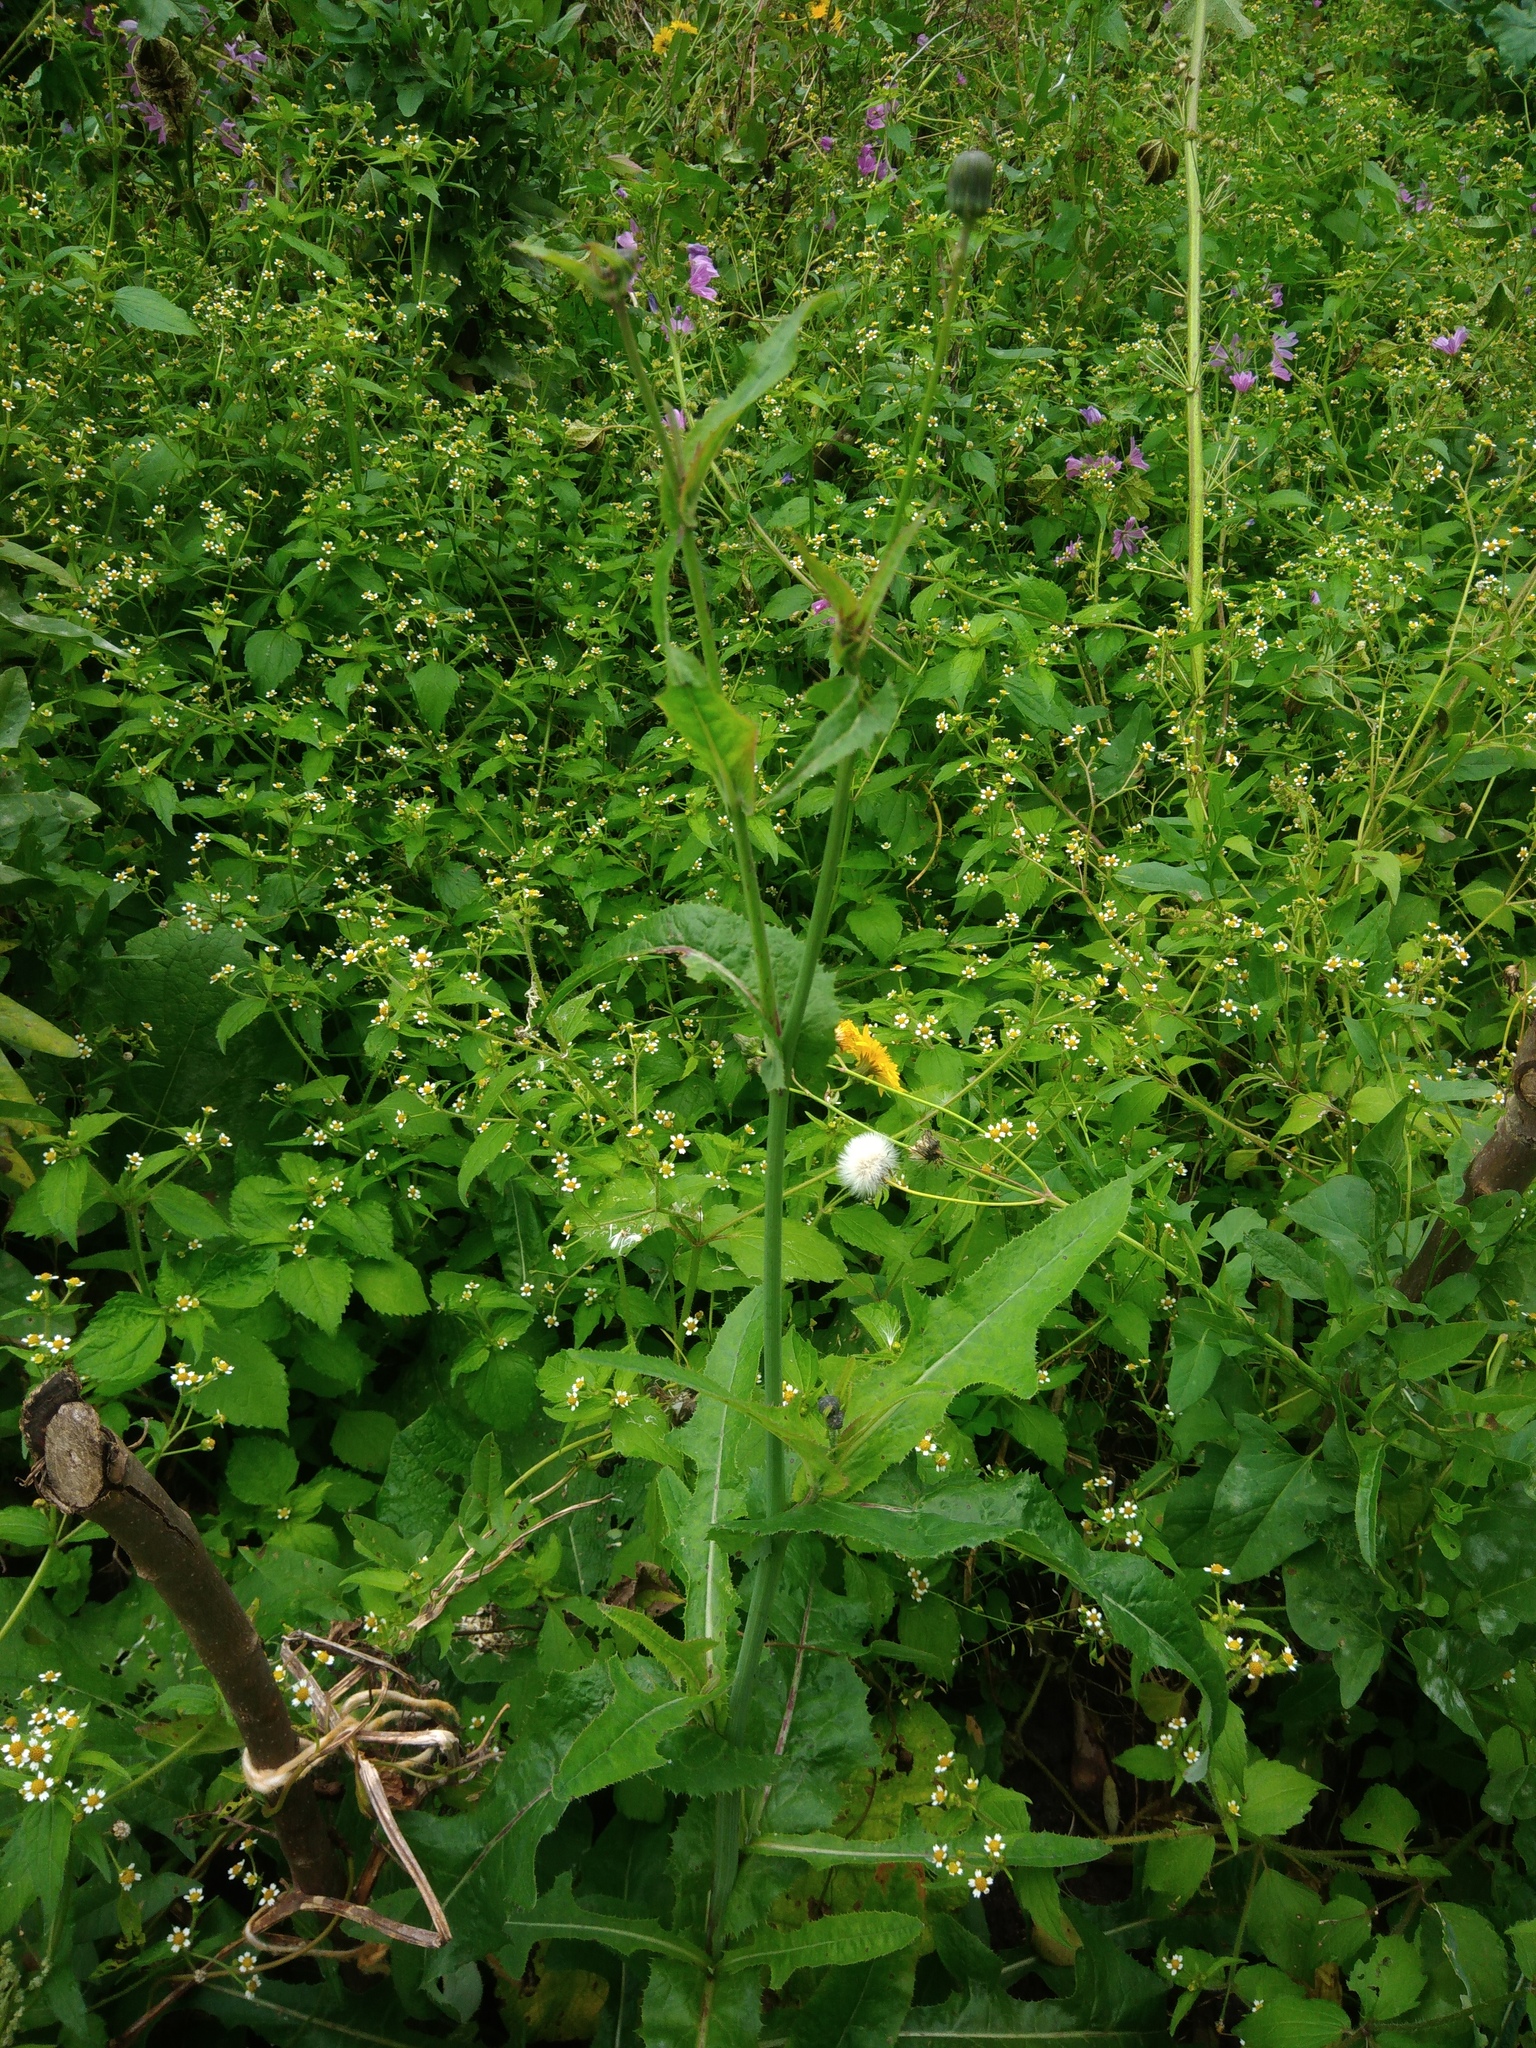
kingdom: Plantae
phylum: Tracheophyta
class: Magnoliopsida
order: Asterales
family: Asteraceae
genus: Sonchus
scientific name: Sonchus arvensis
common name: Perennial sow-thistle
